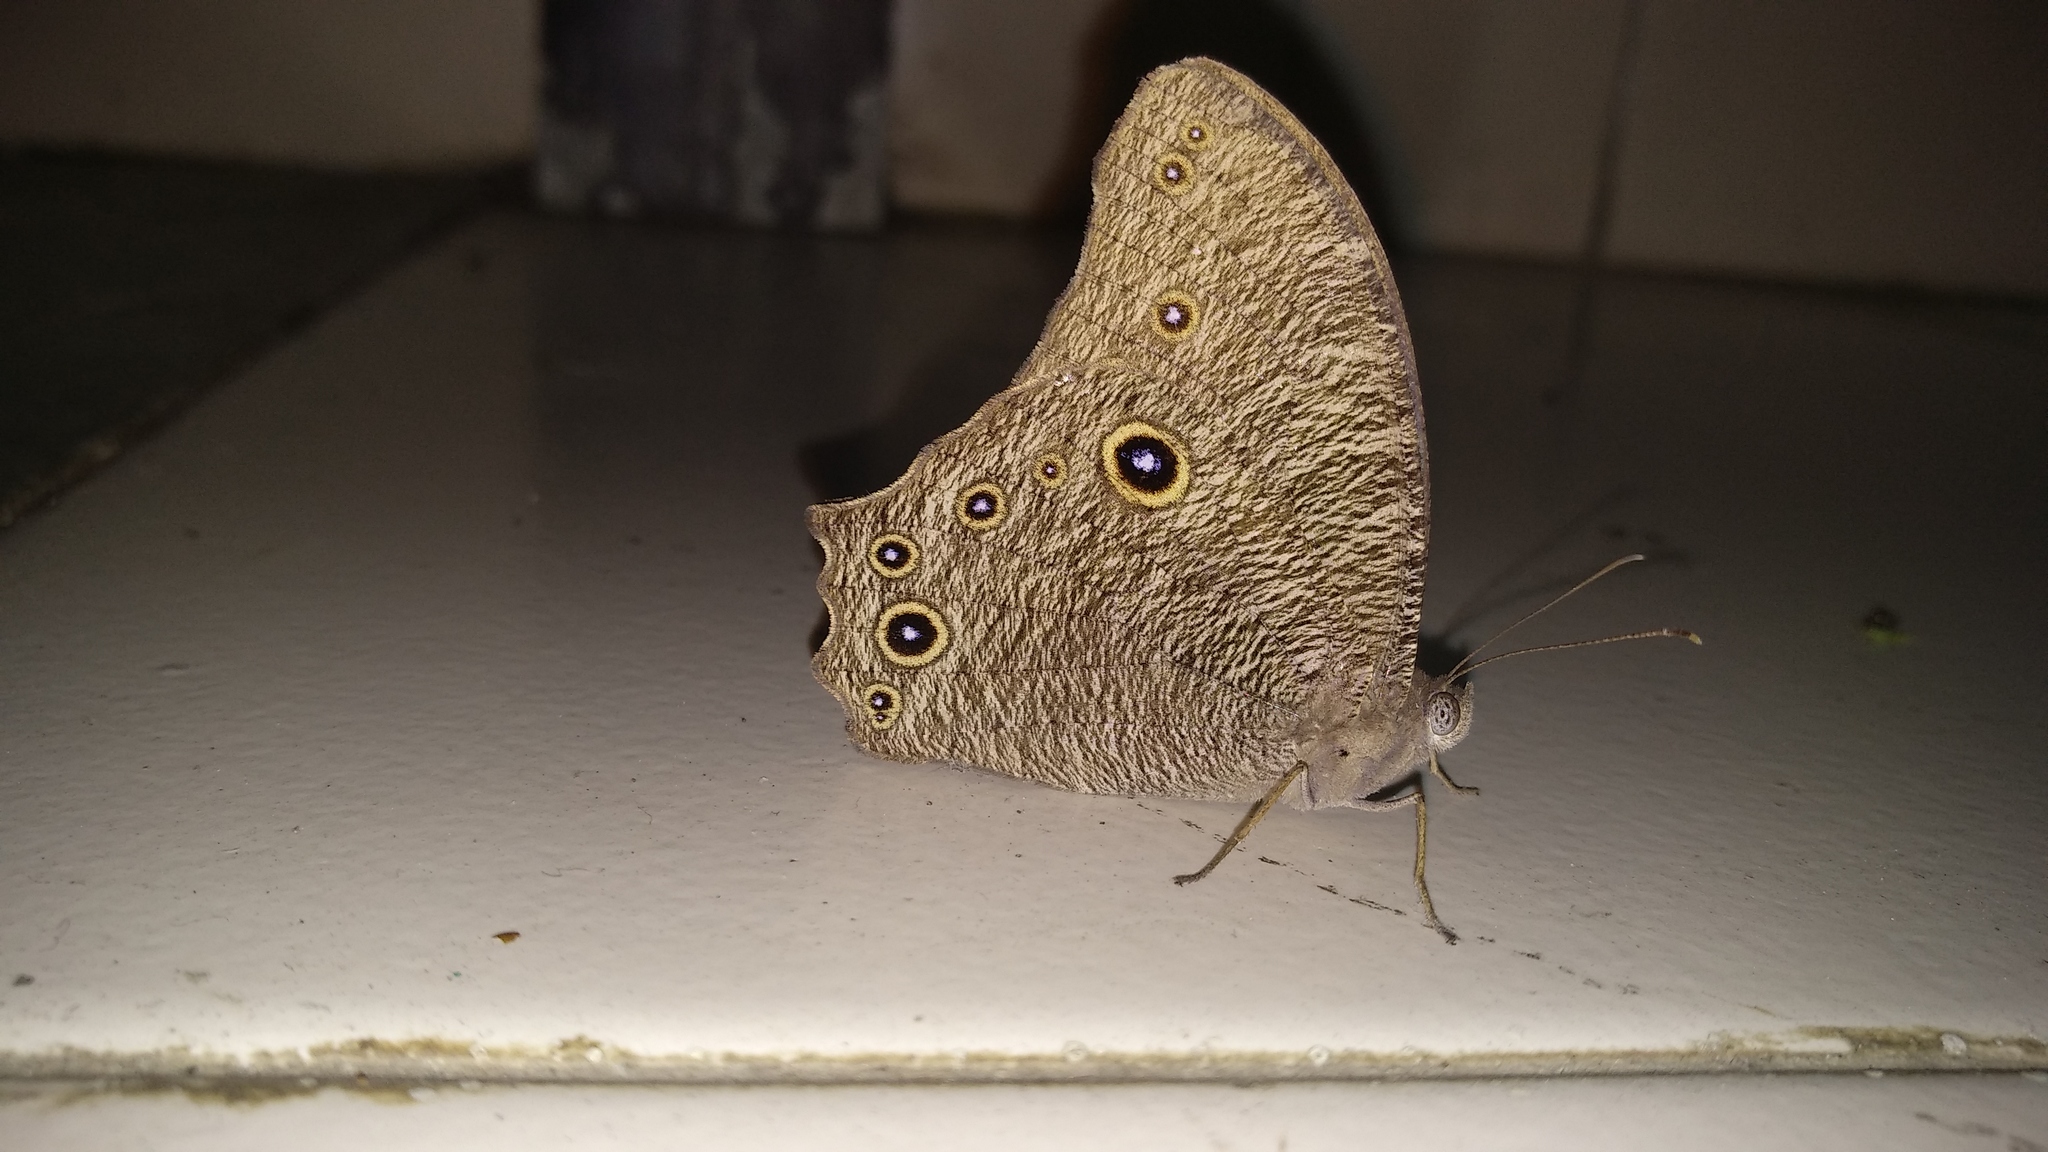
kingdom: Animalia
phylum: Arthropoda
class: Insecta
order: Lepidoptera
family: Nymphalidae
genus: Melanitis
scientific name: Melanitis leda
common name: Twilight brown
